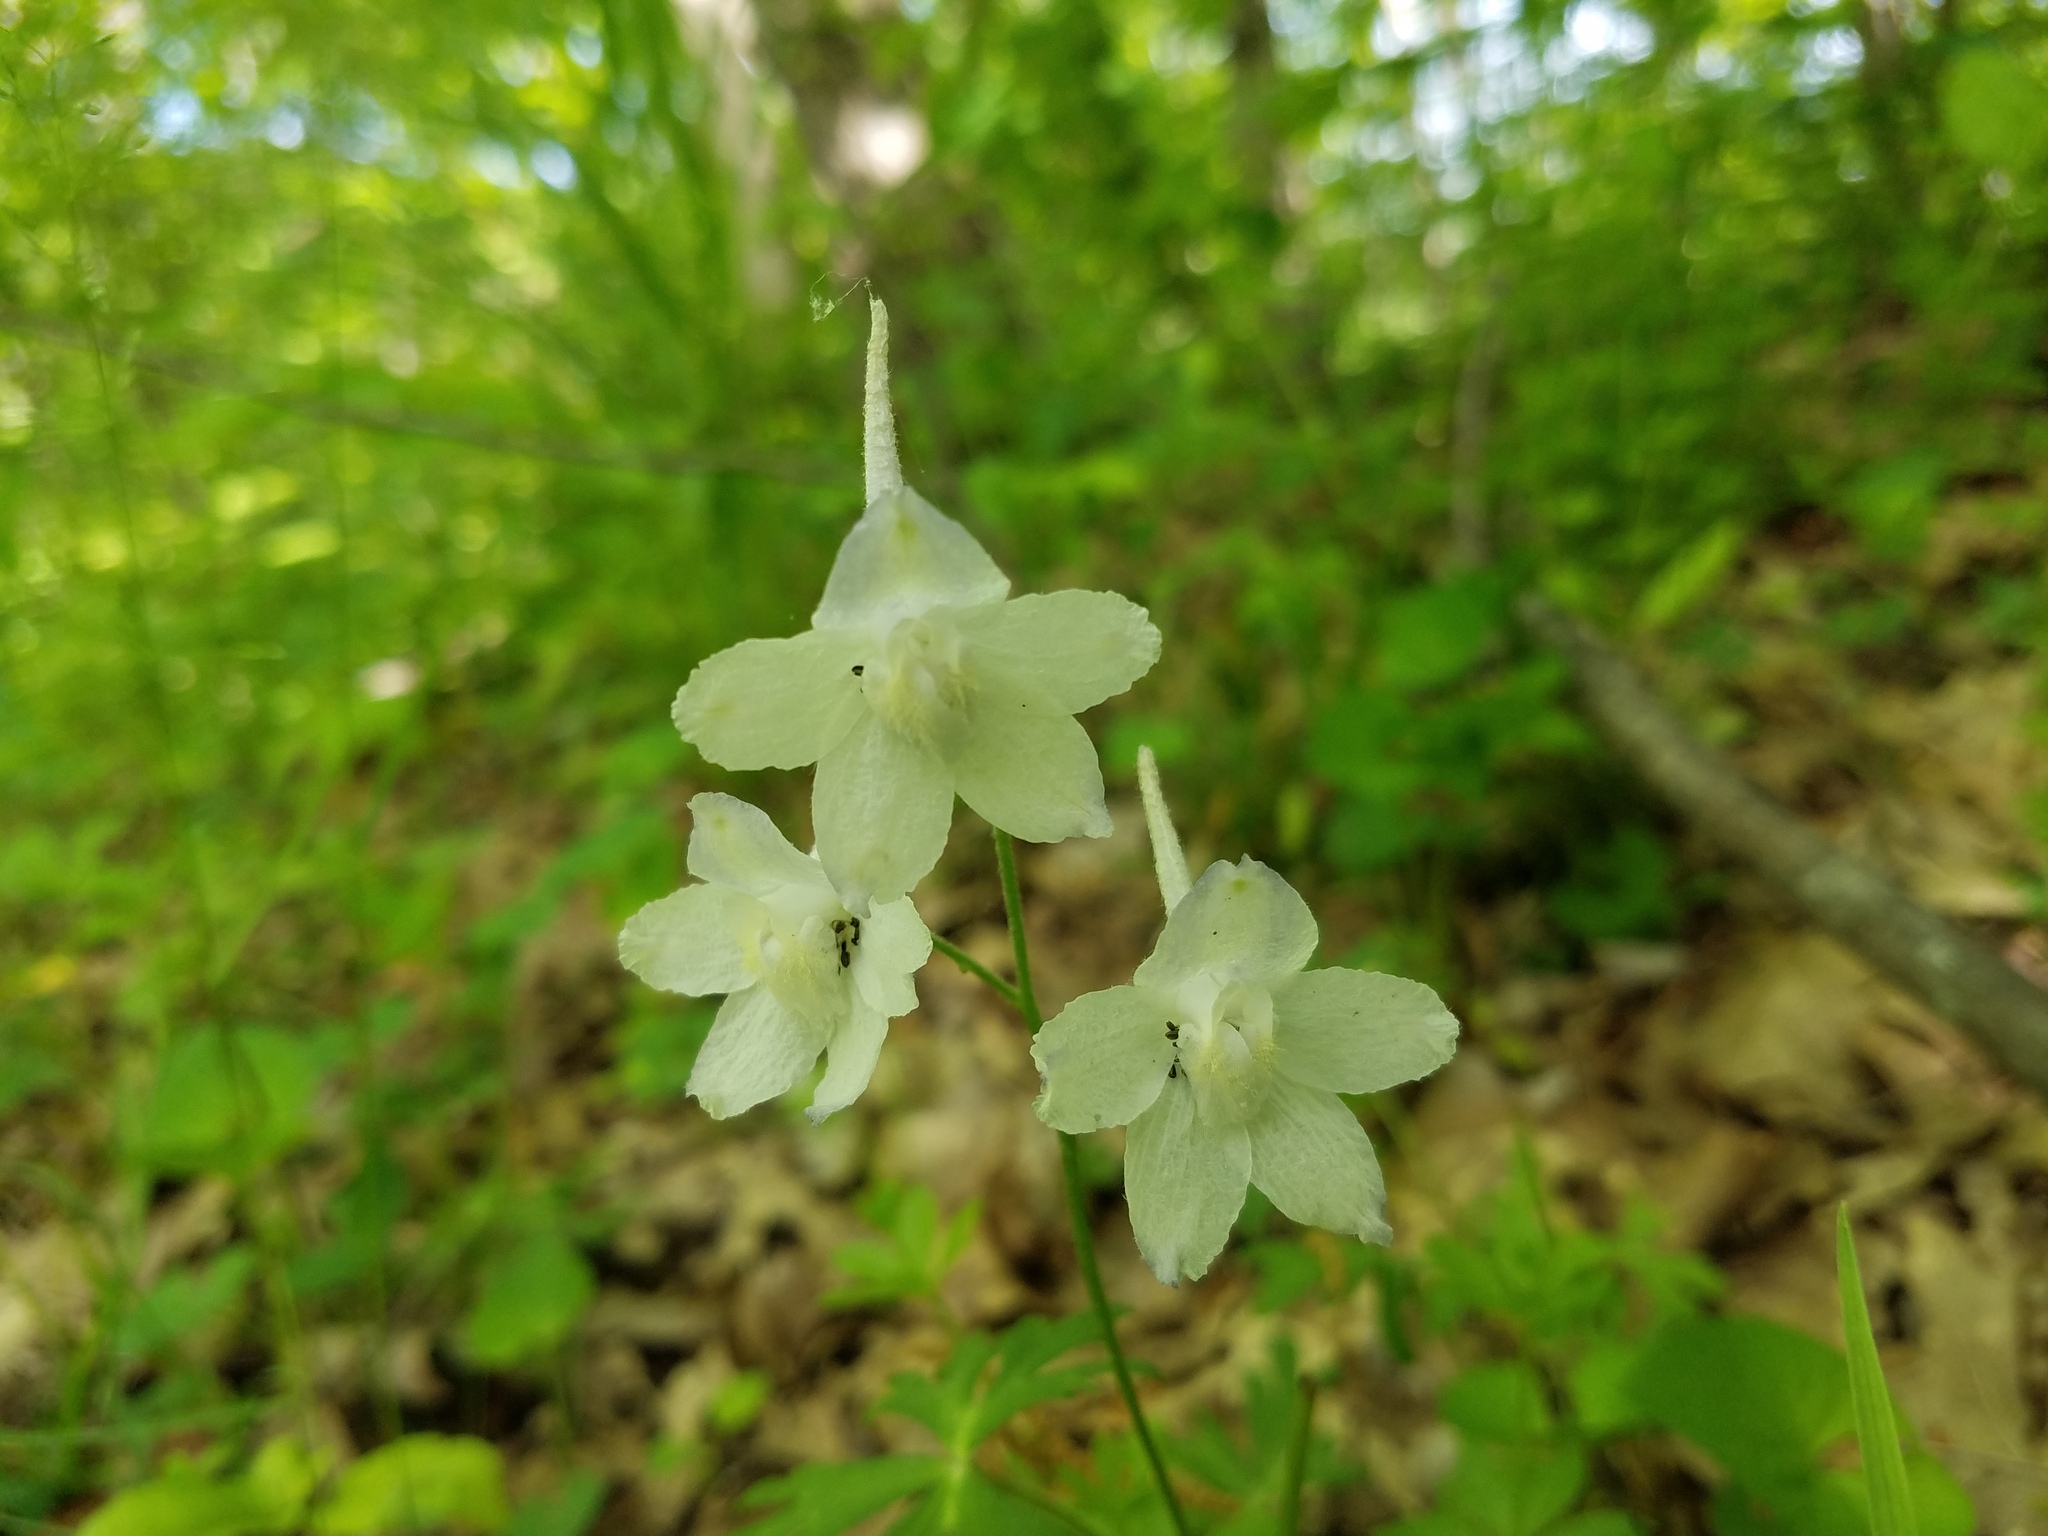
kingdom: Plantae
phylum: Tracheophyta
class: Magnoliopsida
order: Ranunculales
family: Ranunculaceae
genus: Delphinium
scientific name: Delphinium tricorne
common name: Dwarf larkspur
